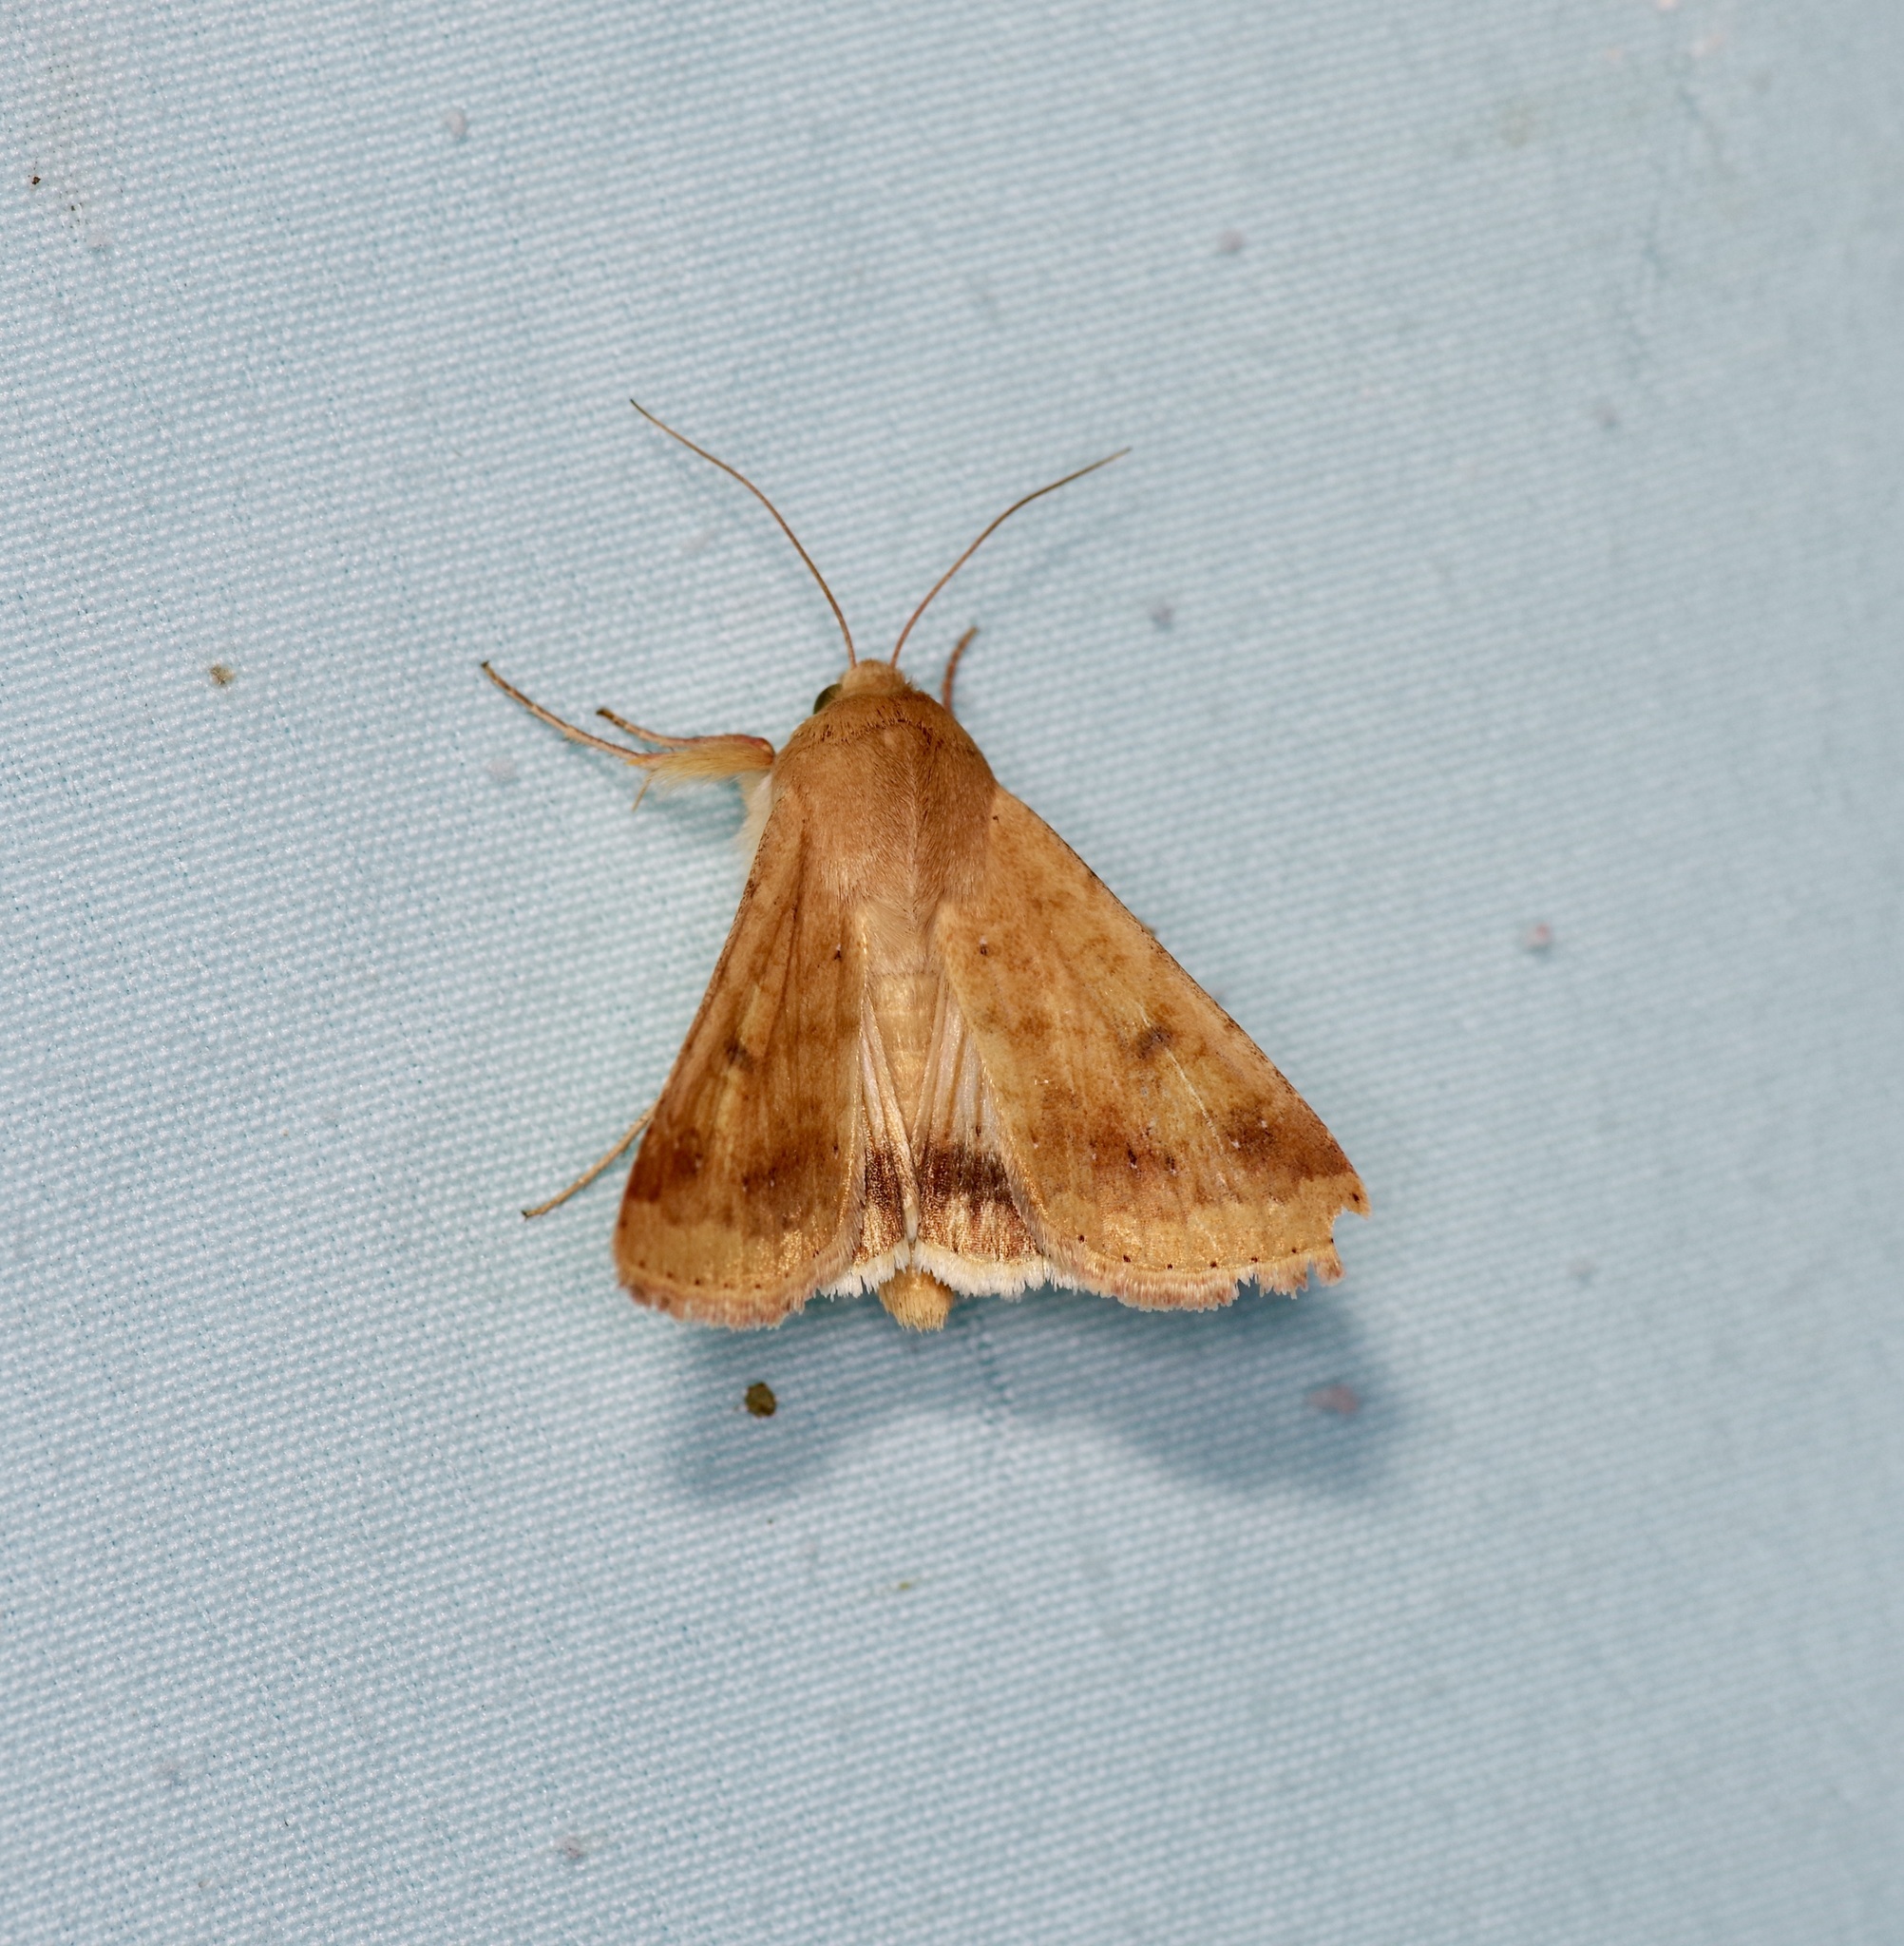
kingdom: Animalia
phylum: Arthropoda
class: Insecta
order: Lepidoptera
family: Noctuidae
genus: Helicoverpa
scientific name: Helicoverpa zea
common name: Bollworm
